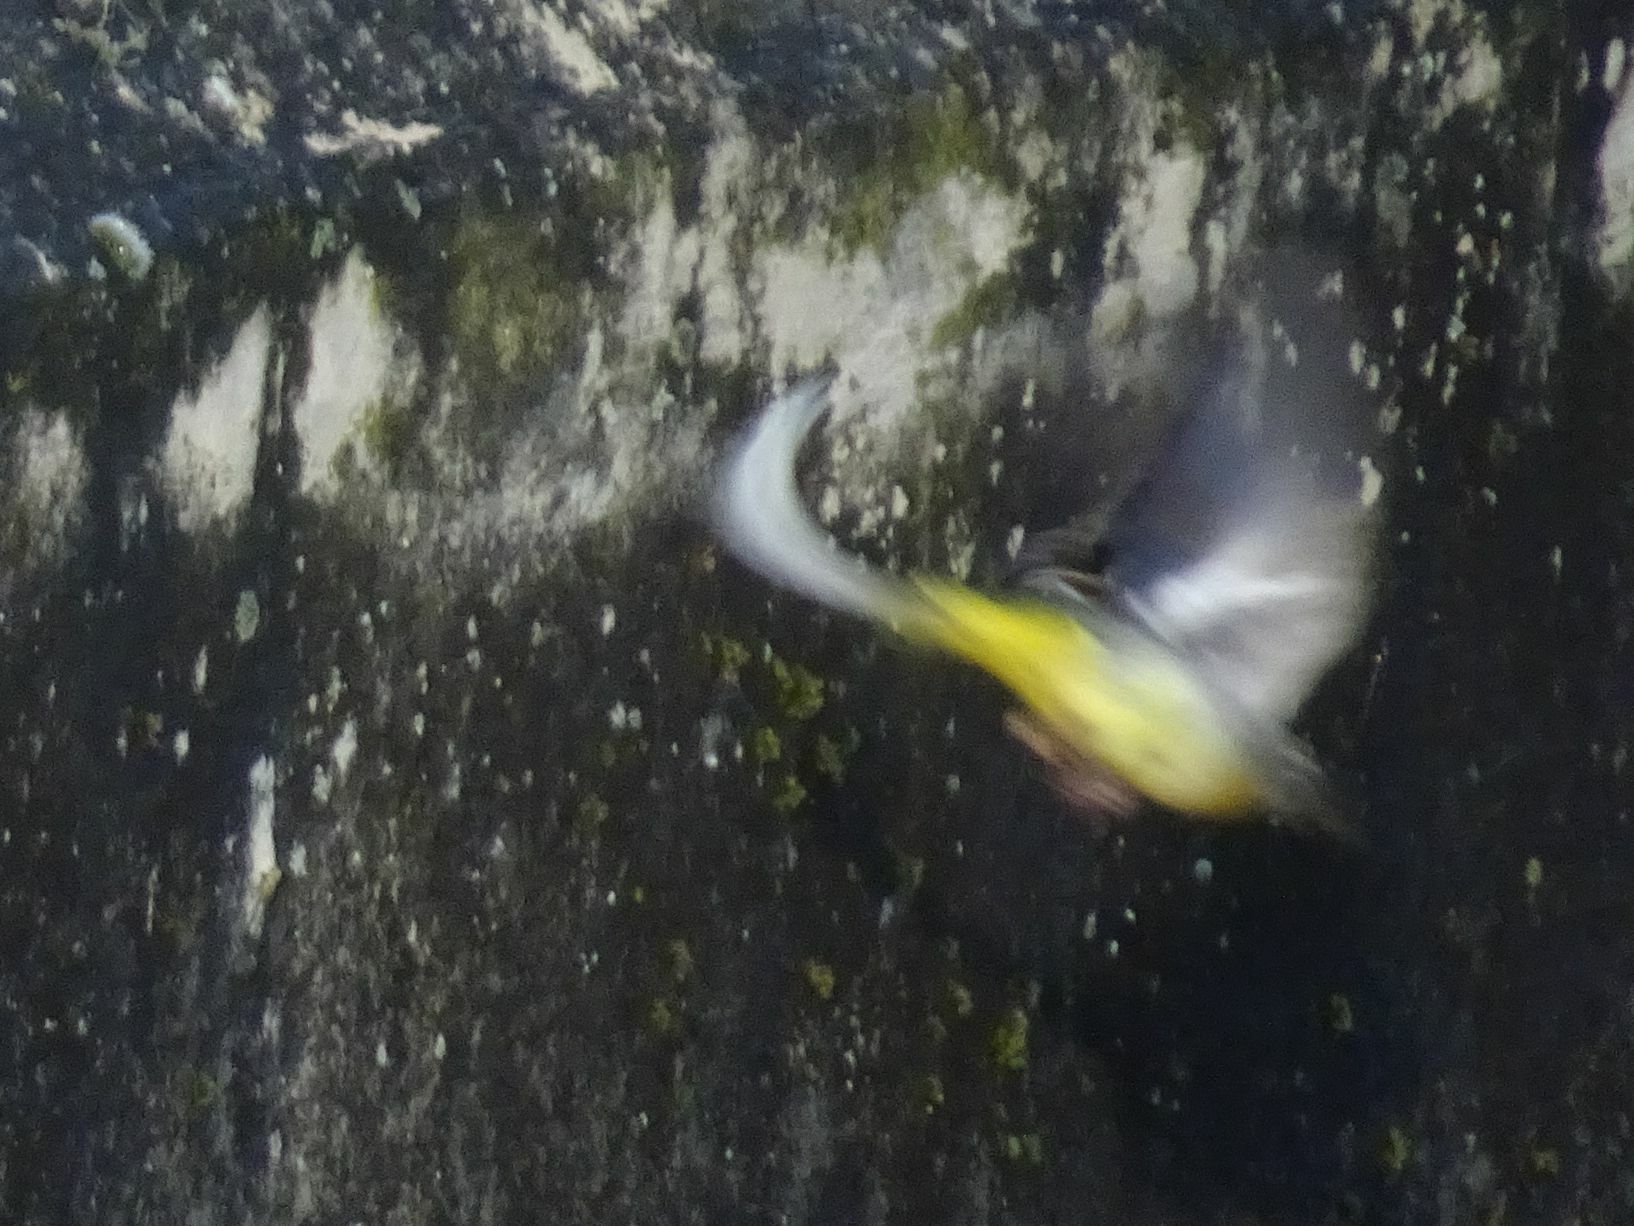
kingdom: Animalia
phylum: Chordata
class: Aves
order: Passeriformes
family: Motacillidae
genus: Motacilla
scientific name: Motacilla cinerea
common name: Grey wagtail
